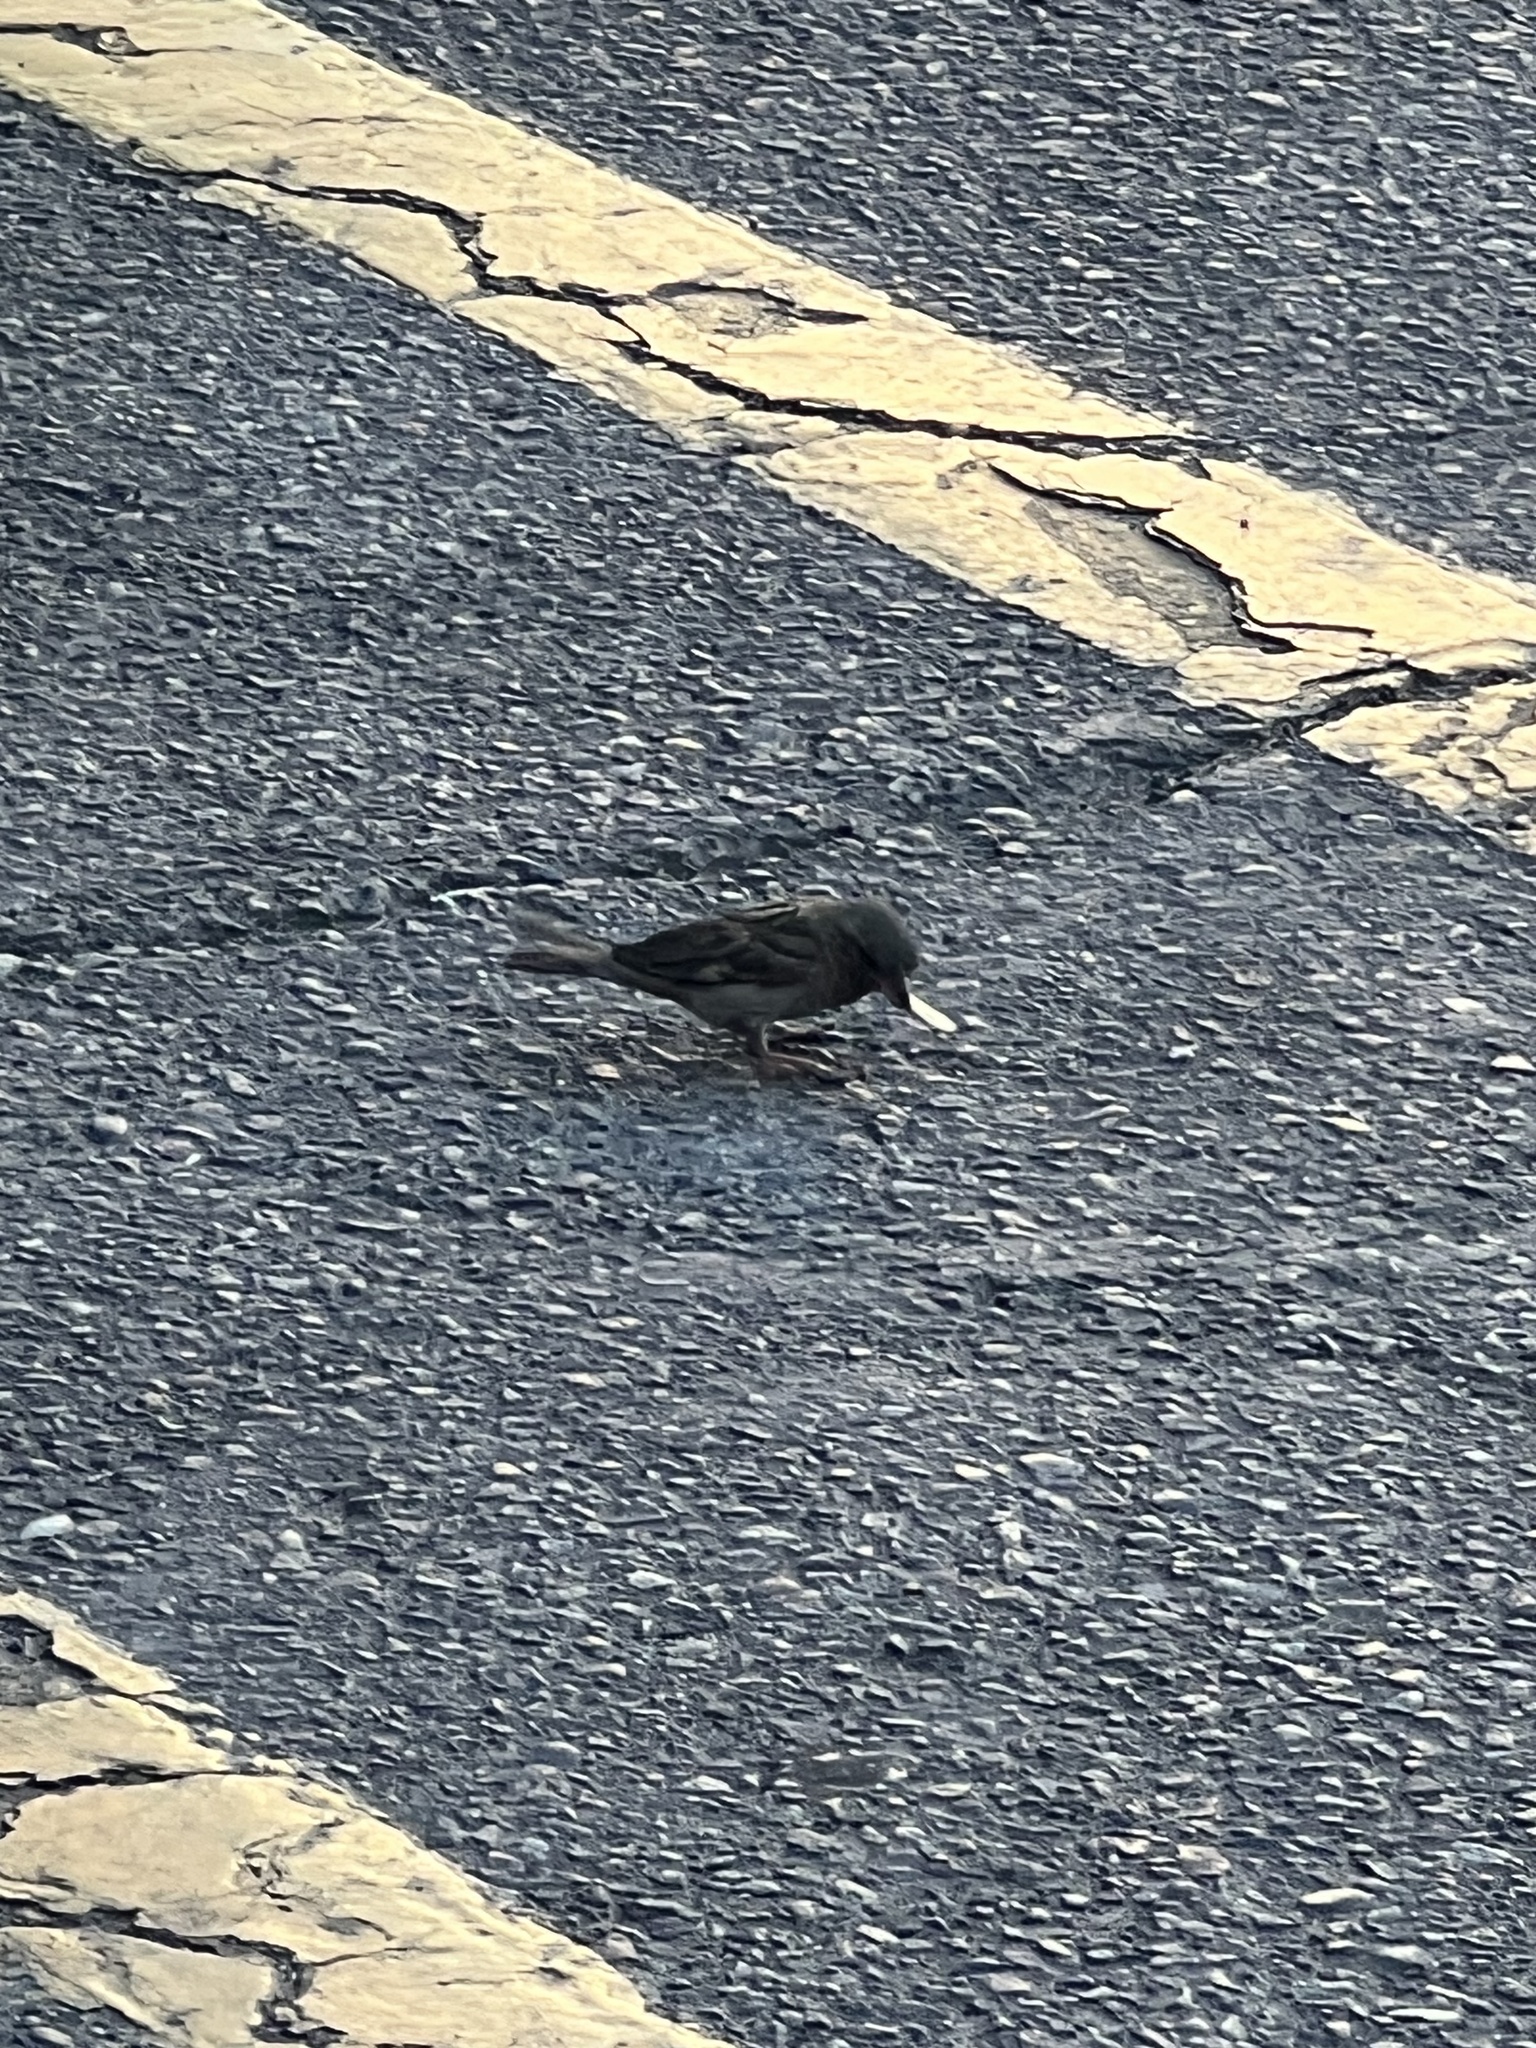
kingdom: Animalia
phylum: Chordata
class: Aves
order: Passeriformes
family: Passeridae
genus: Passer
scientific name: Passer domesticus
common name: House sparrow
